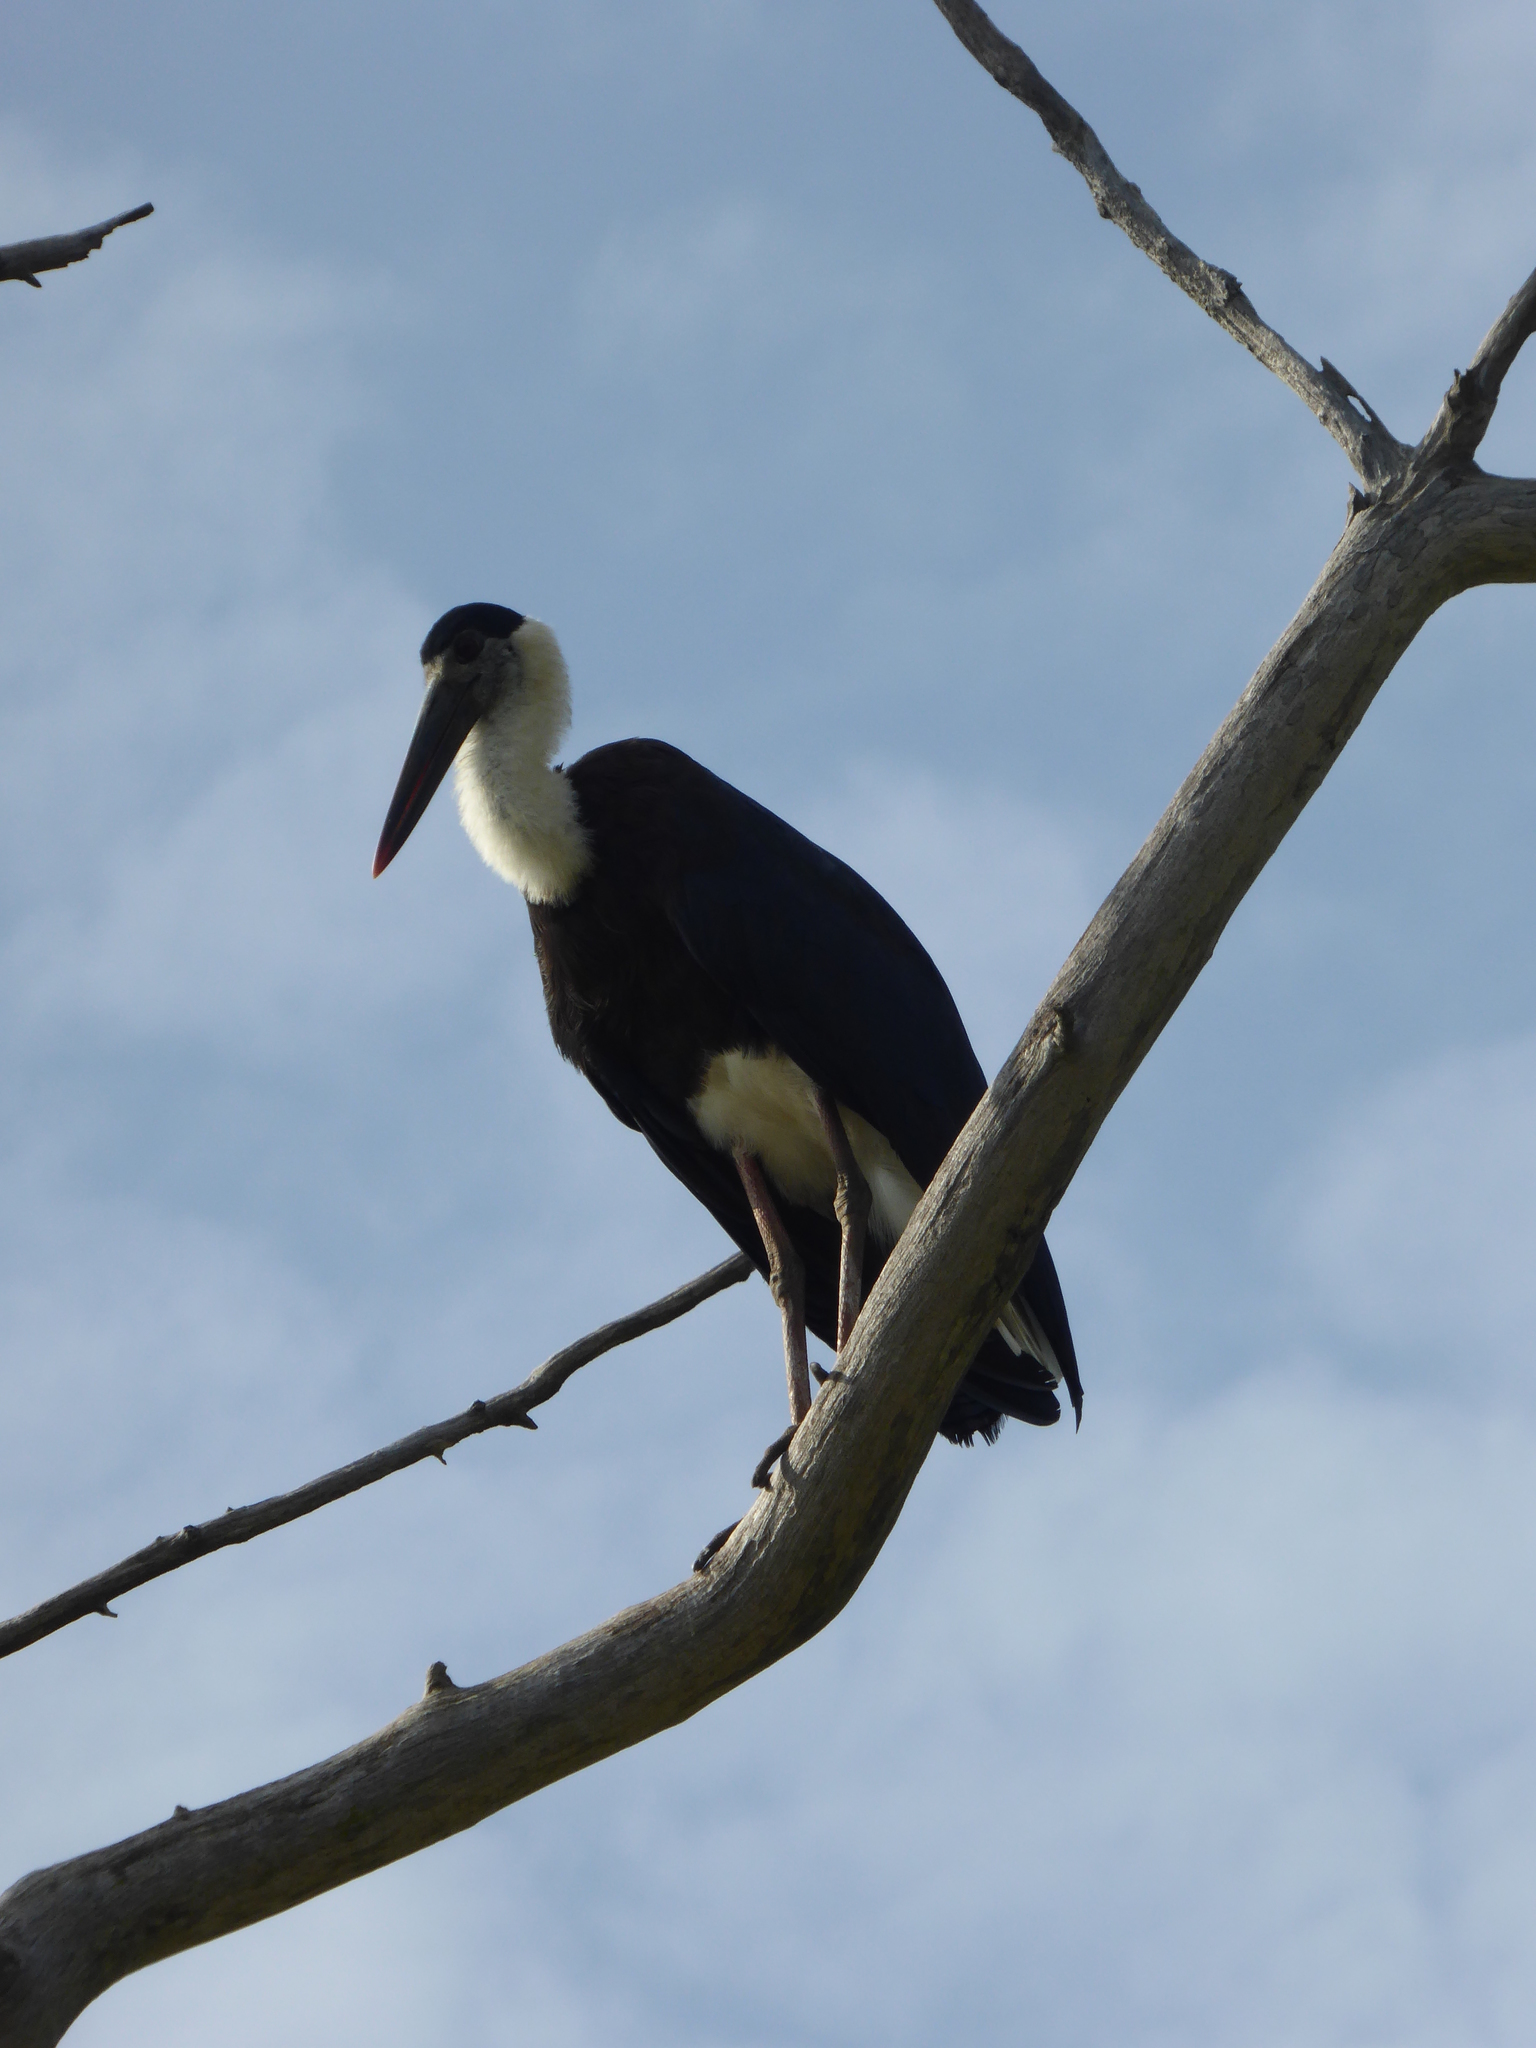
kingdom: Animalia
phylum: Chordata
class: Aves
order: Ciconiiformes
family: Ciconiidae
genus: Ciconia
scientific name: Ciconia episcopus
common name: Woolly-necked stork
